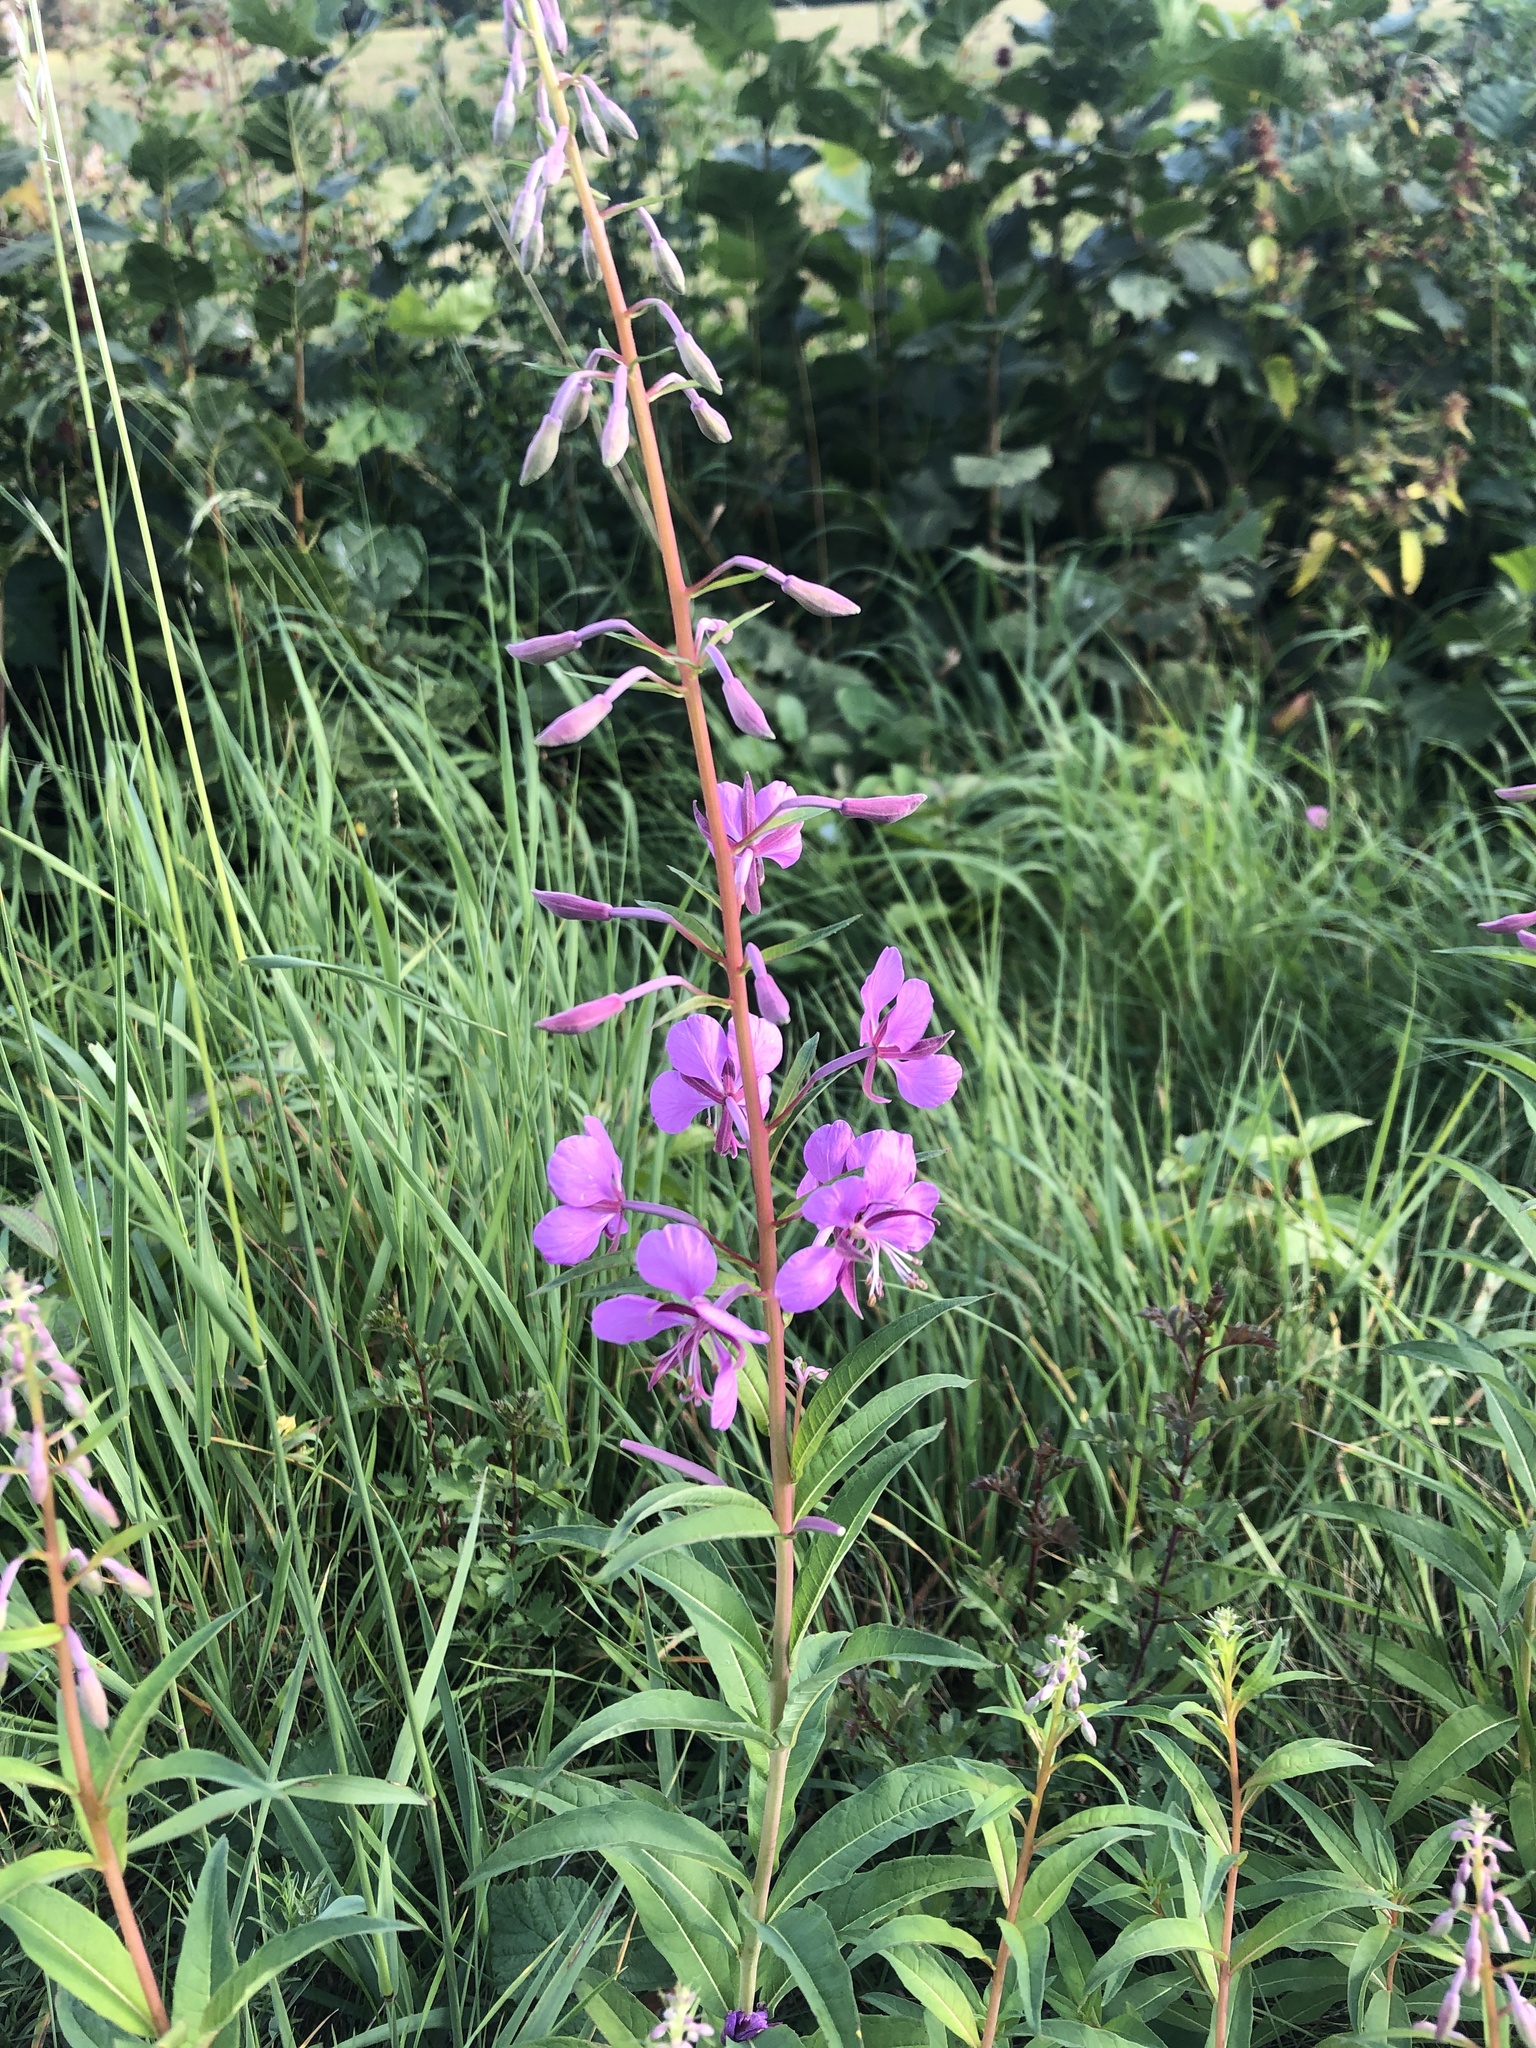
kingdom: Plantae
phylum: Tracheophyta
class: Magnoliopsida
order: Myrtales
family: Onagraceae
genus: Chamaenerion
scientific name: Chamaenerion angustifolium
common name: Fireweed
